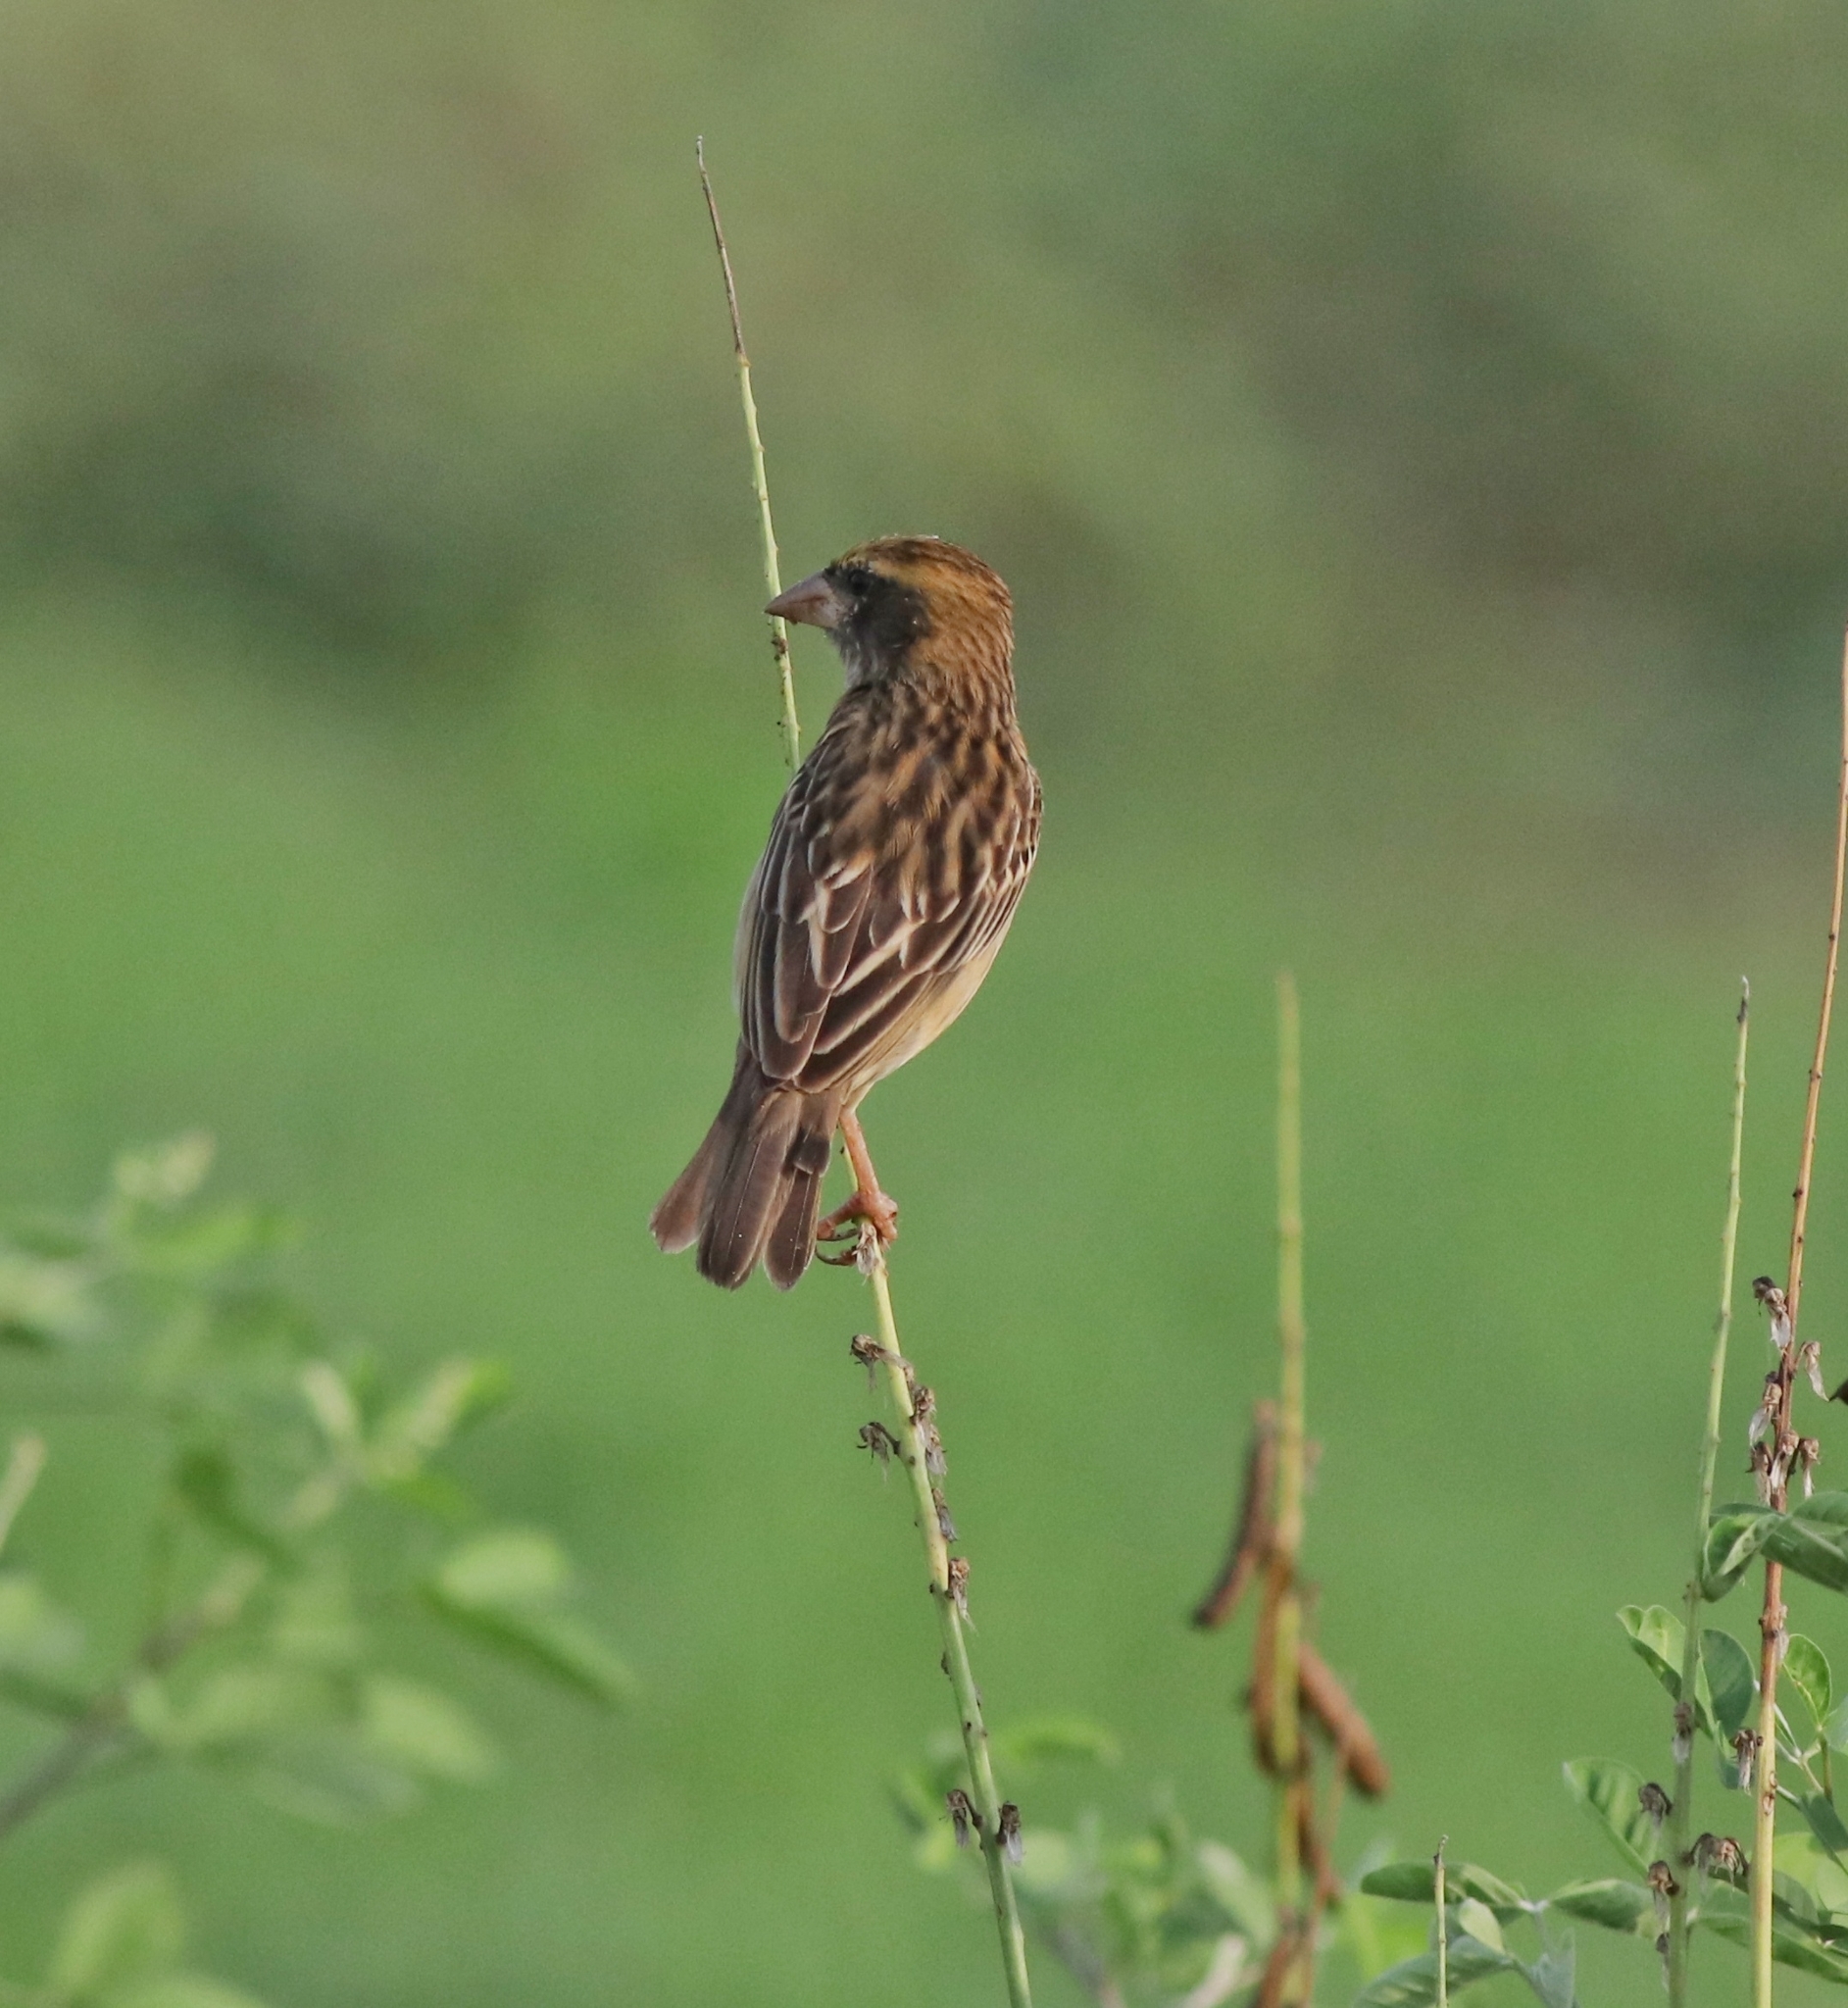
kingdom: Animalia
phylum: Chordata
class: Aves
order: Passeriformes
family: Ploceidae
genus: Ploceus
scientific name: Ploceus philippinus
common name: Baya weaver
